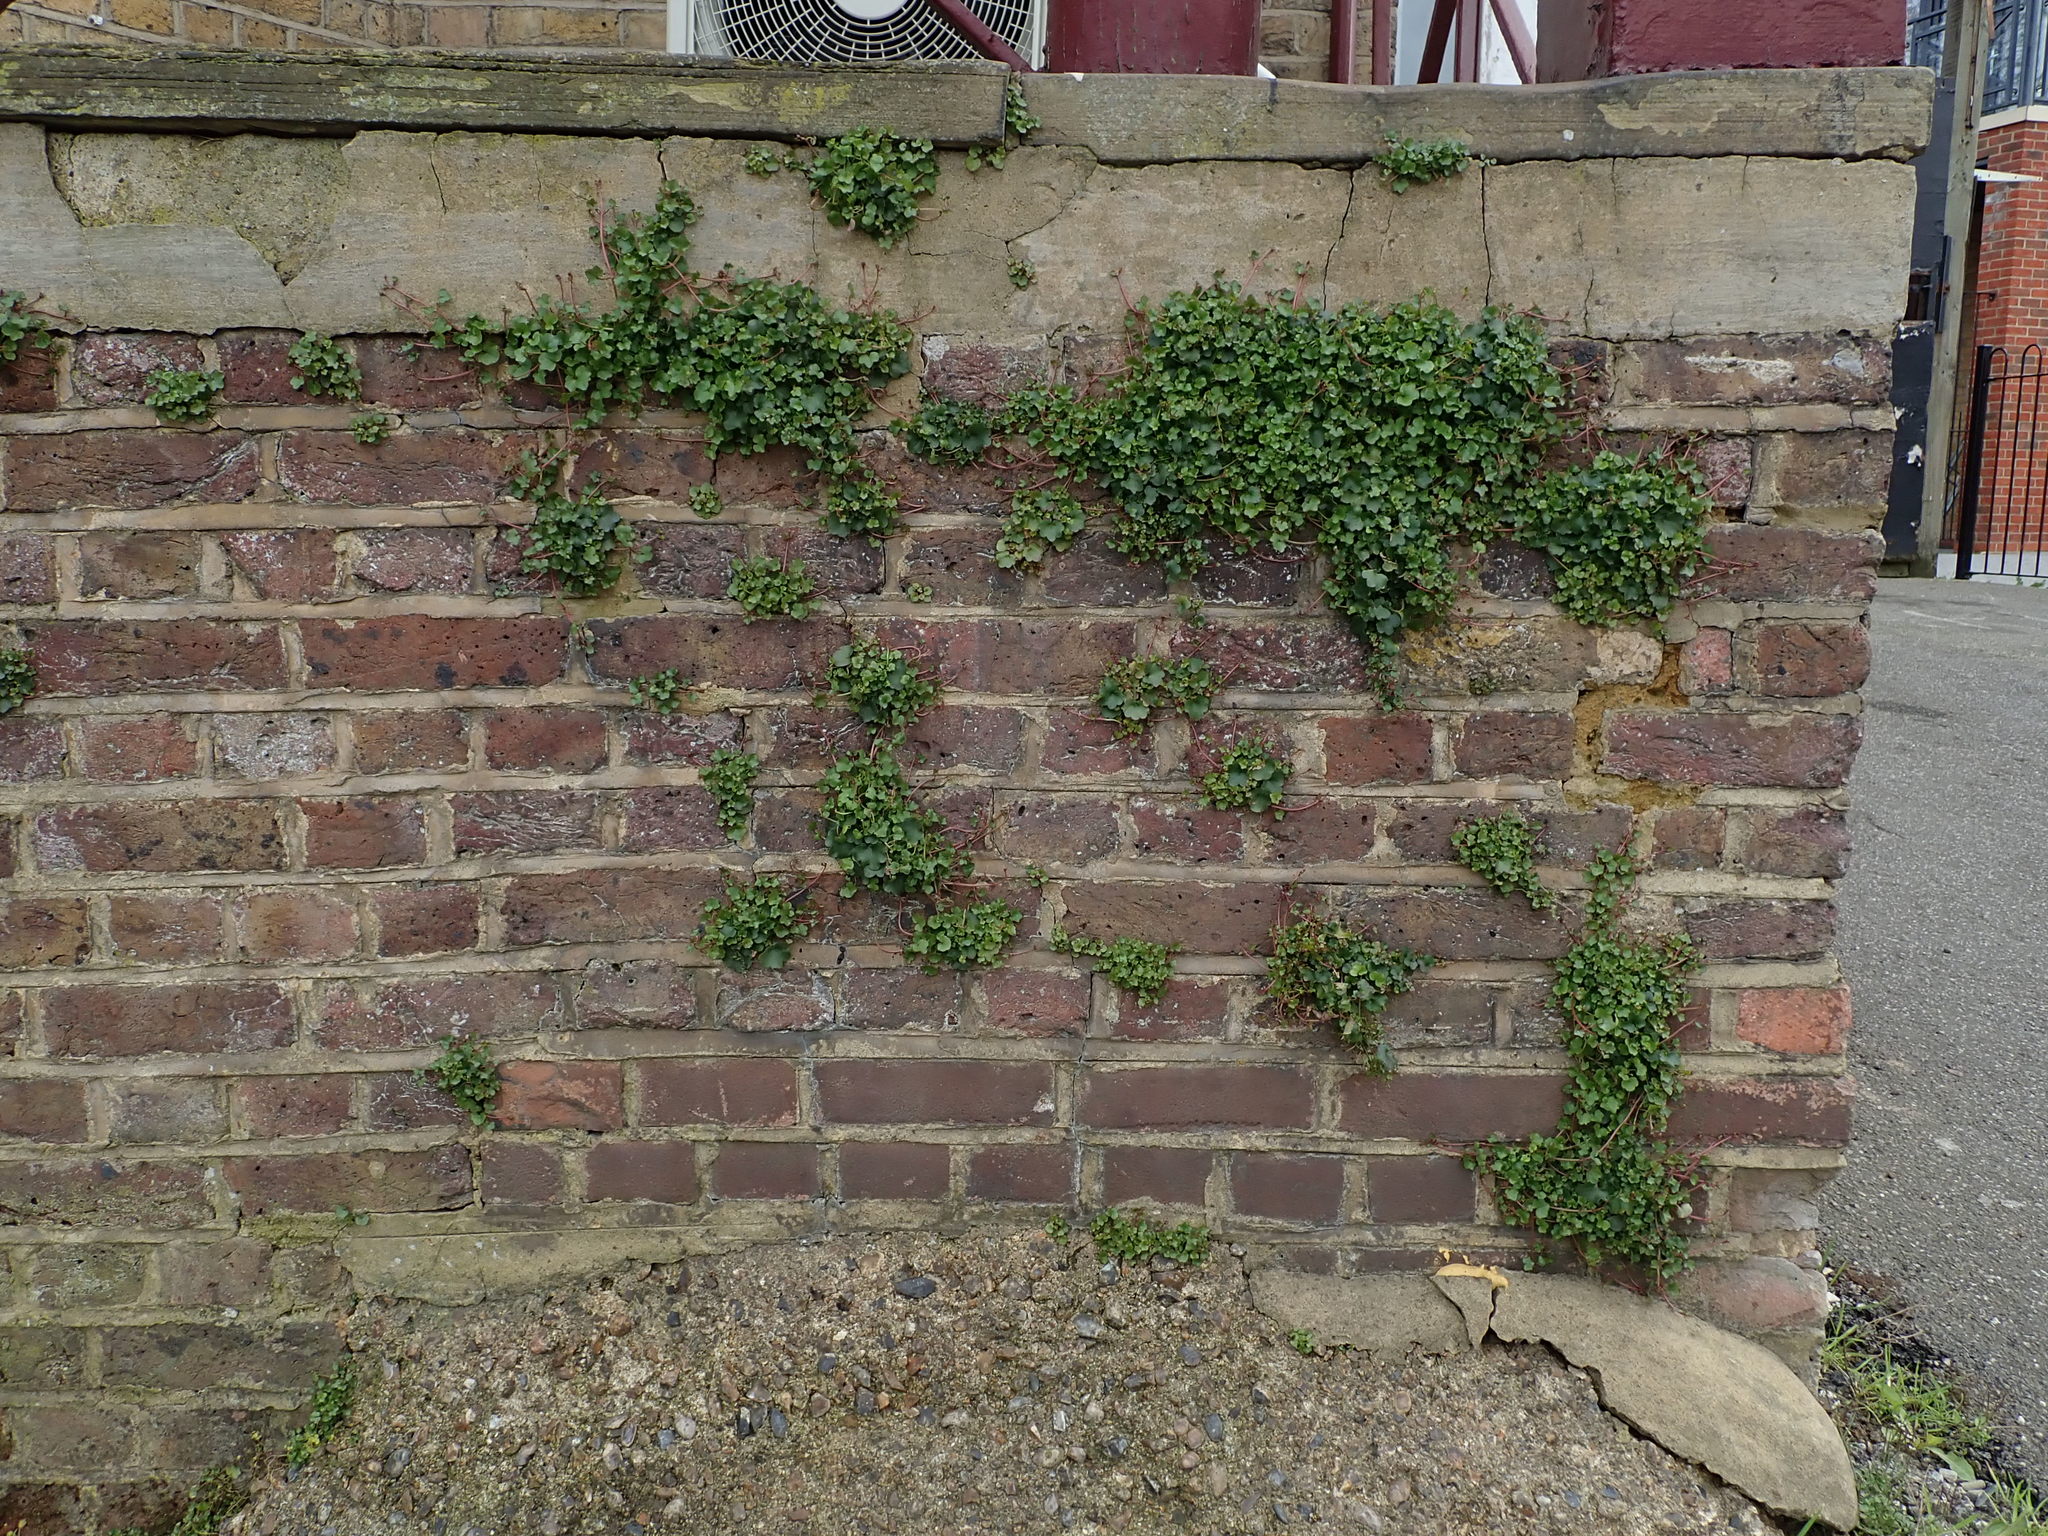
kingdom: Plantae
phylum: Tracheophyta
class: Magnoliopsida
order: Lamiales
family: Plantaginaceae
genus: Cymbalaria
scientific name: Cymbalaria muralis
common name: Ivy-leaved toadflax
